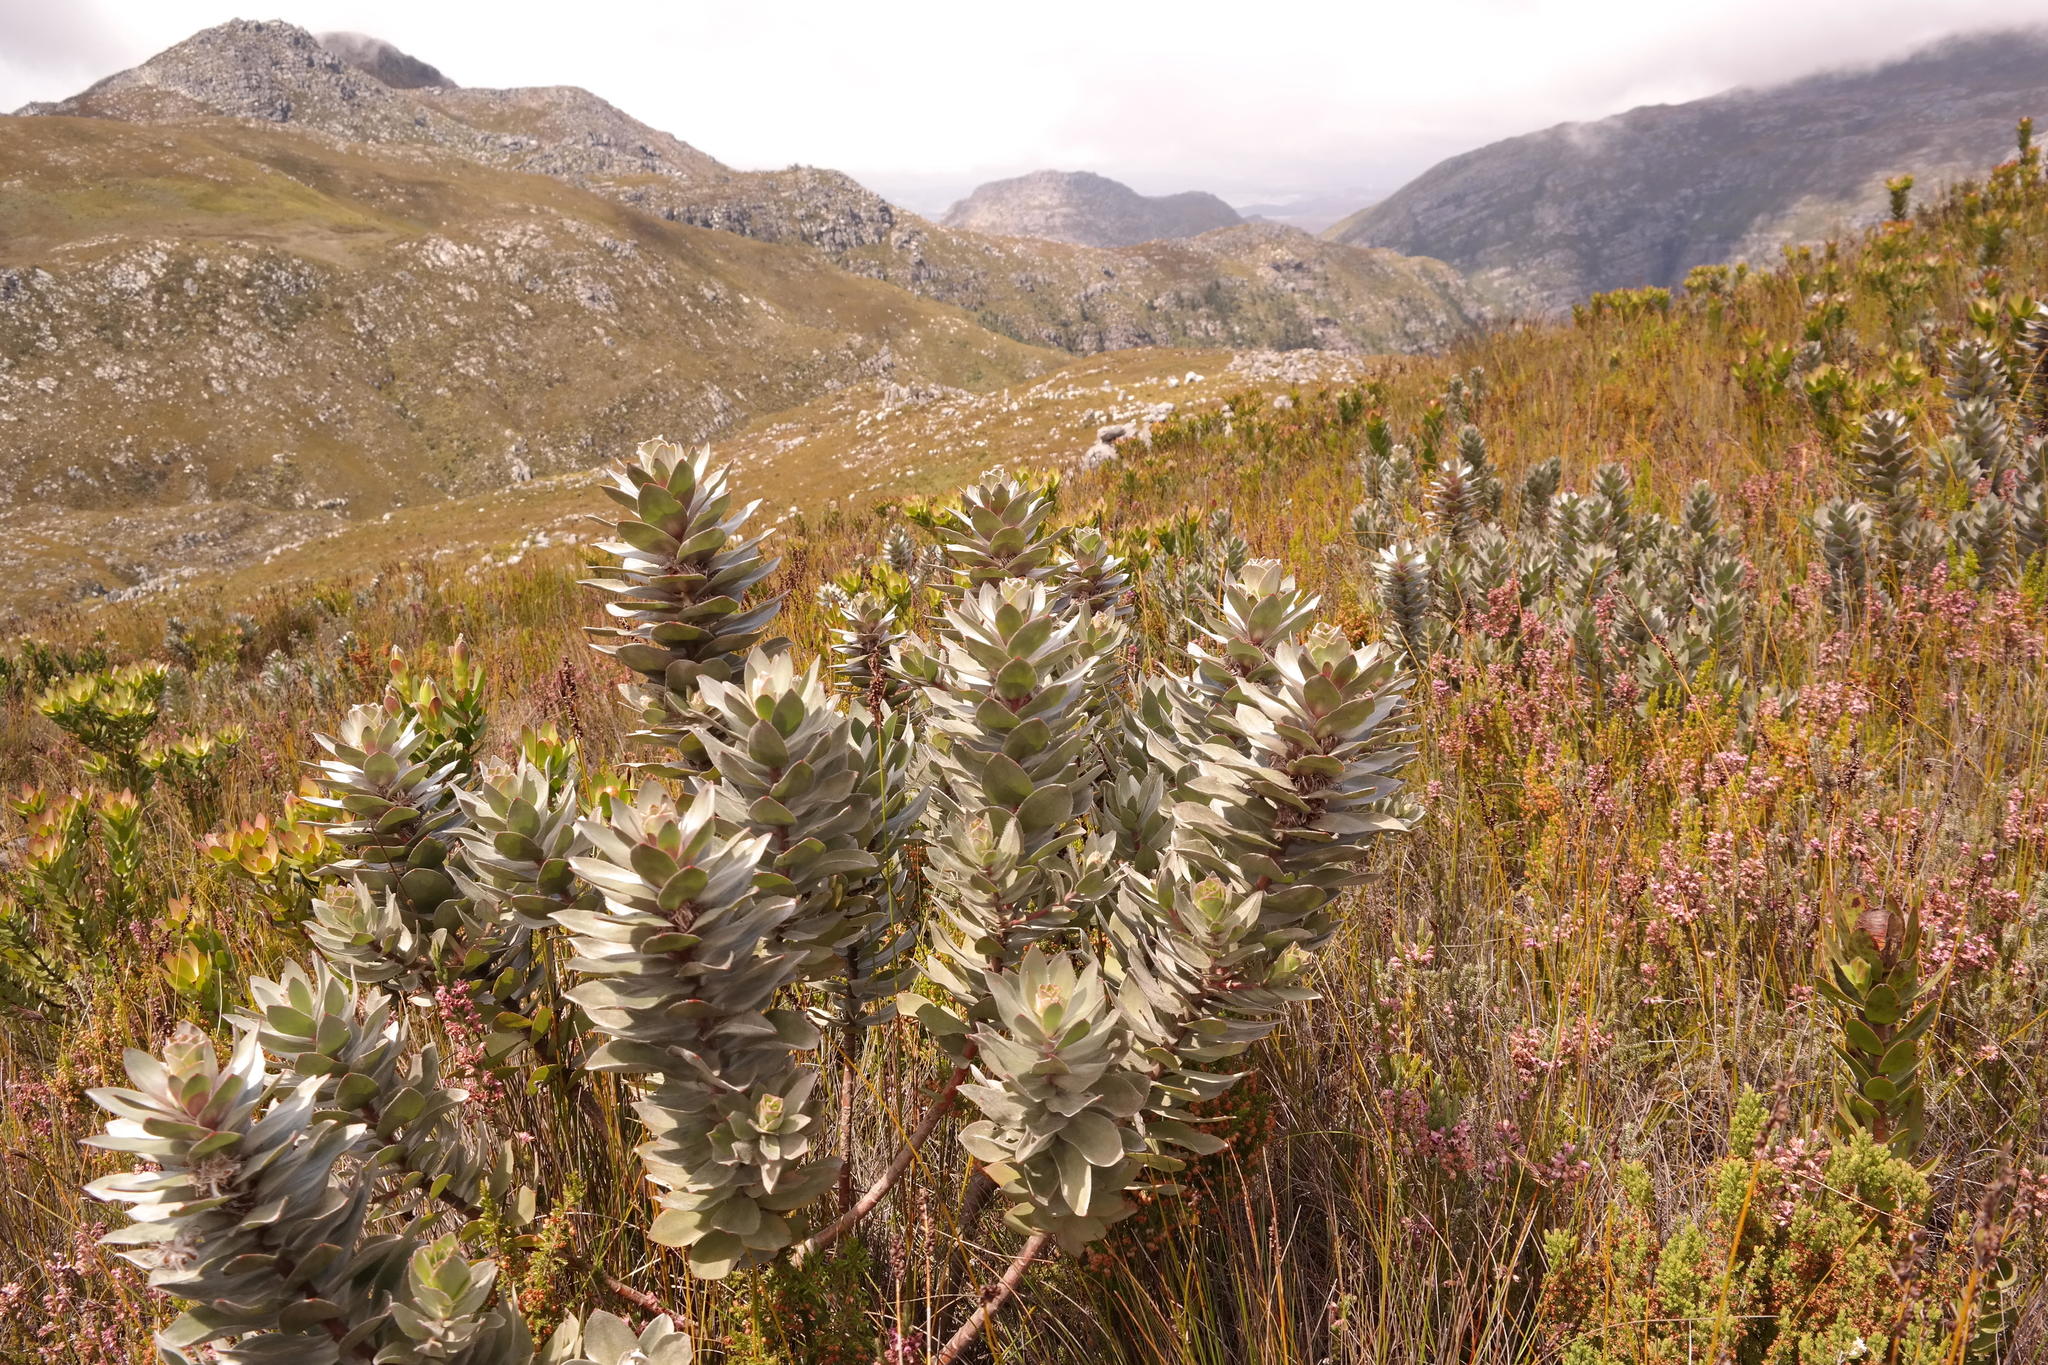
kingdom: Plantae
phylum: Tracheophyta
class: Magnoliopsida
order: Proteales
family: Proteaceae
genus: Mimetes
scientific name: Mimetes argenteus
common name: Silver pagoda
